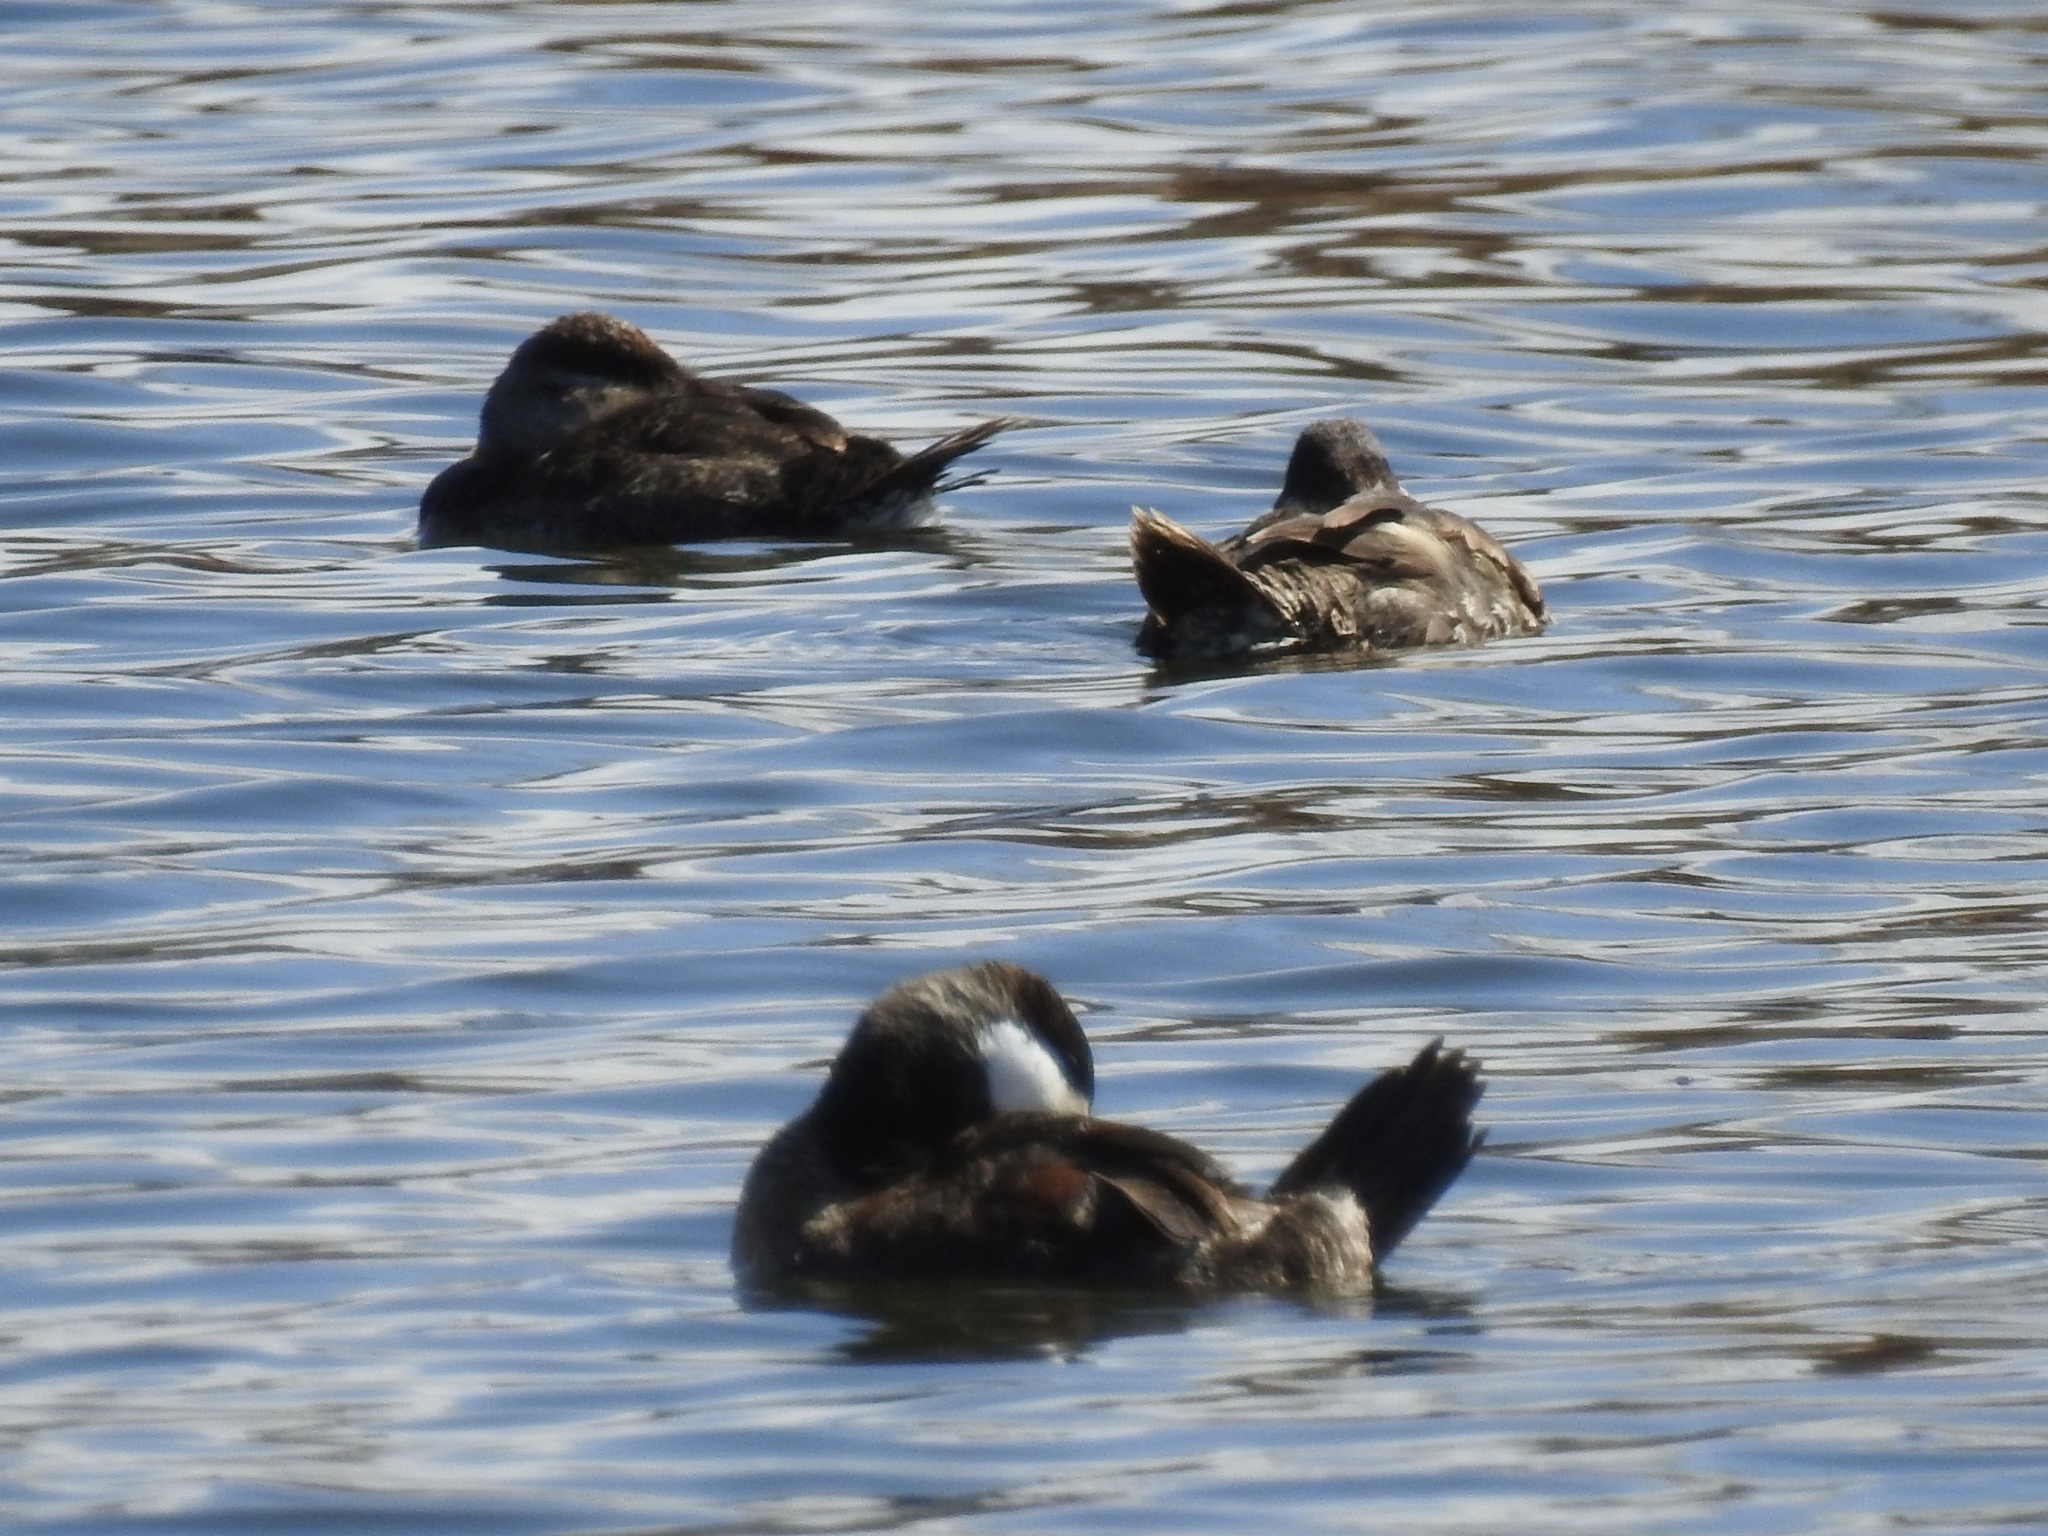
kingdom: Animalia
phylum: Chordata
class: Aves
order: Anseriformes
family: Anatidae
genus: Oxyura
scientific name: Oxyura jamaicensis
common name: Ruddy duck
